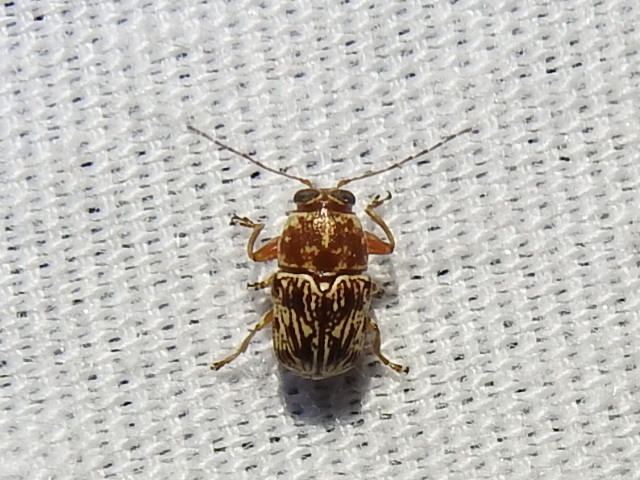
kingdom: Animalia
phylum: Arthropoda
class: Insecta
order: Coleoptera
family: Chrysomelidae
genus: Pachybrachis
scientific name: Pachybrachis
